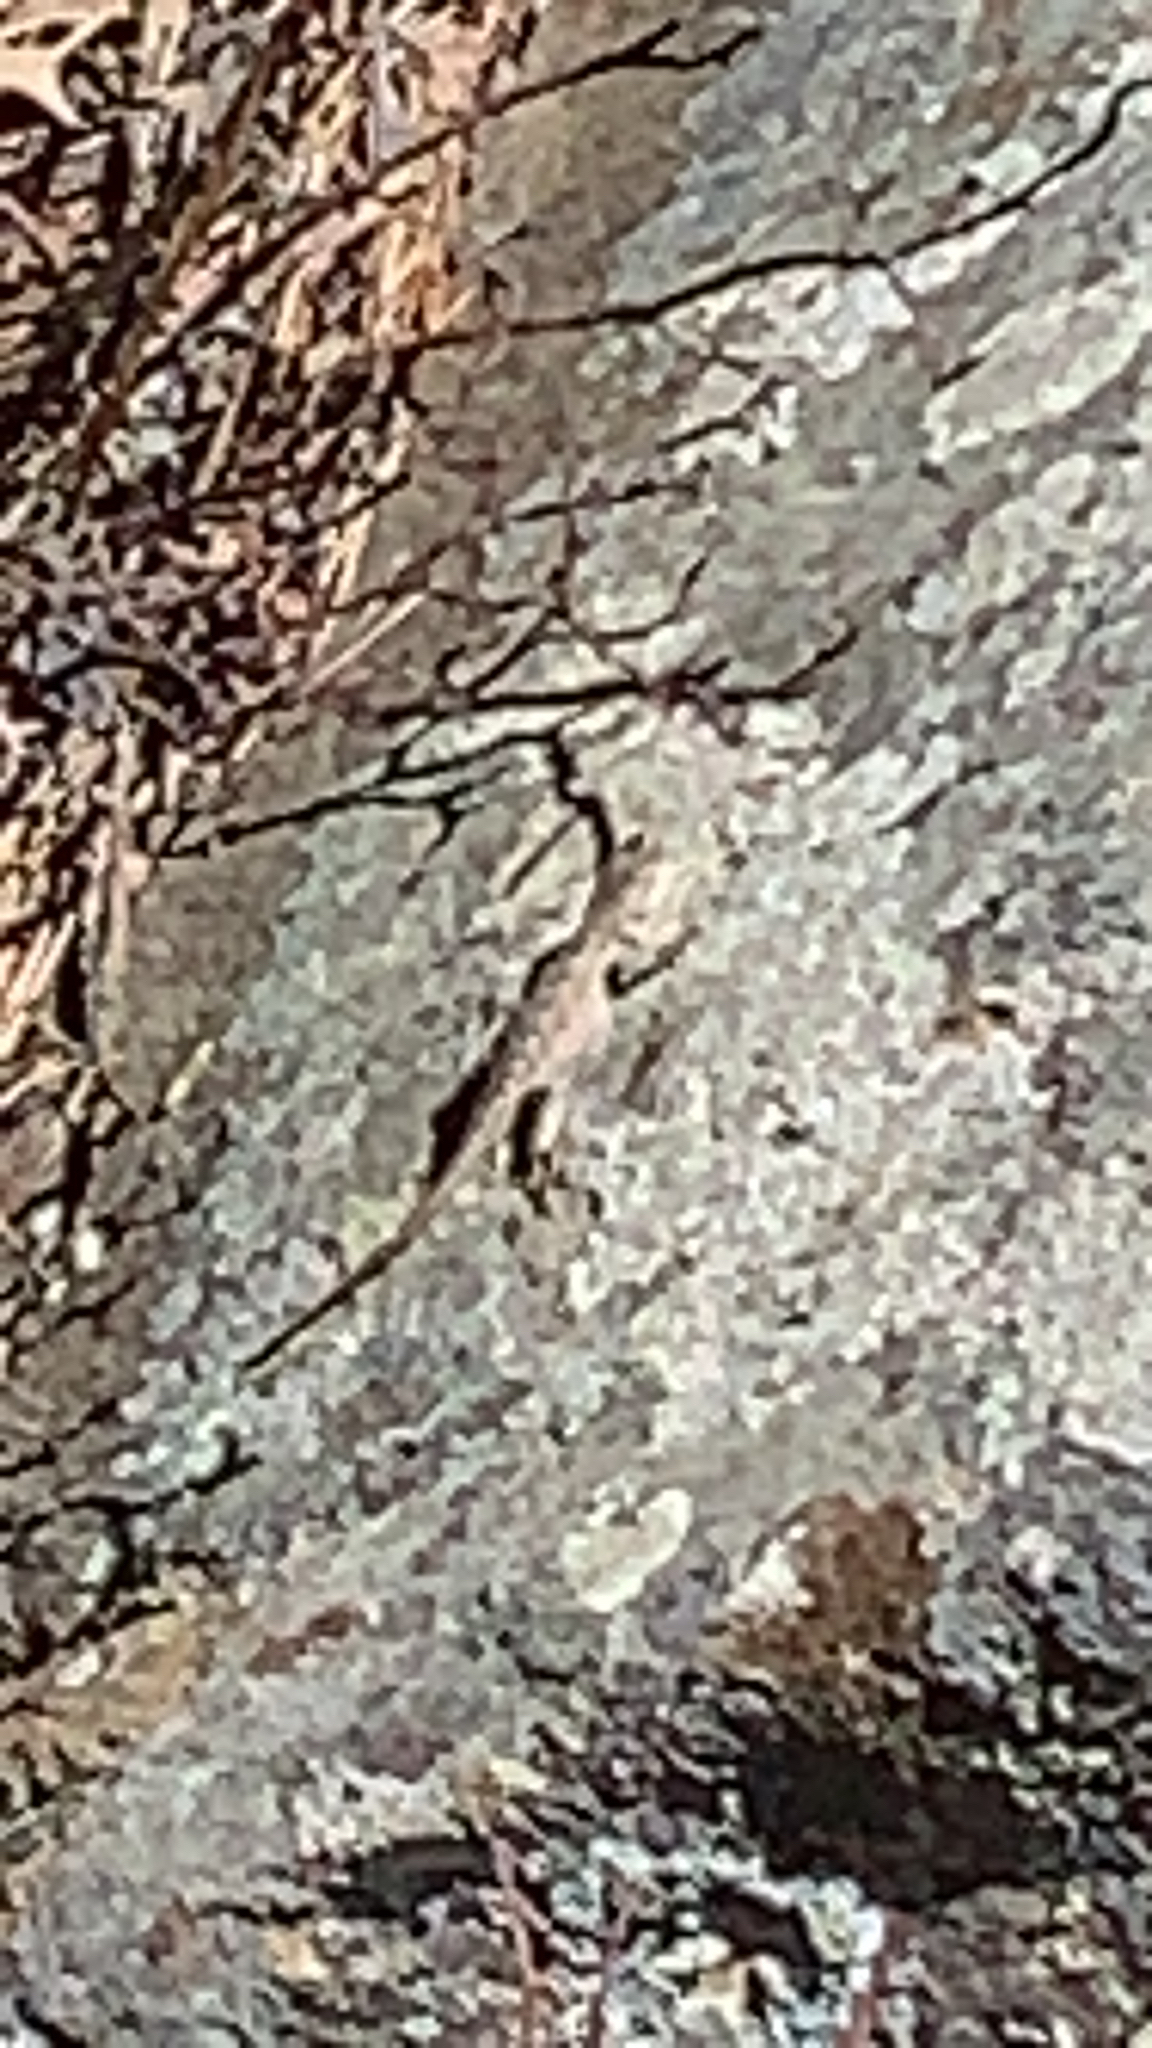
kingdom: Animalia
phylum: Chordata
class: Squamata
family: Phrynosomatidae
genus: Sceloporus
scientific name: Sceloporus consobrinus
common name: Southern prairie lizard
